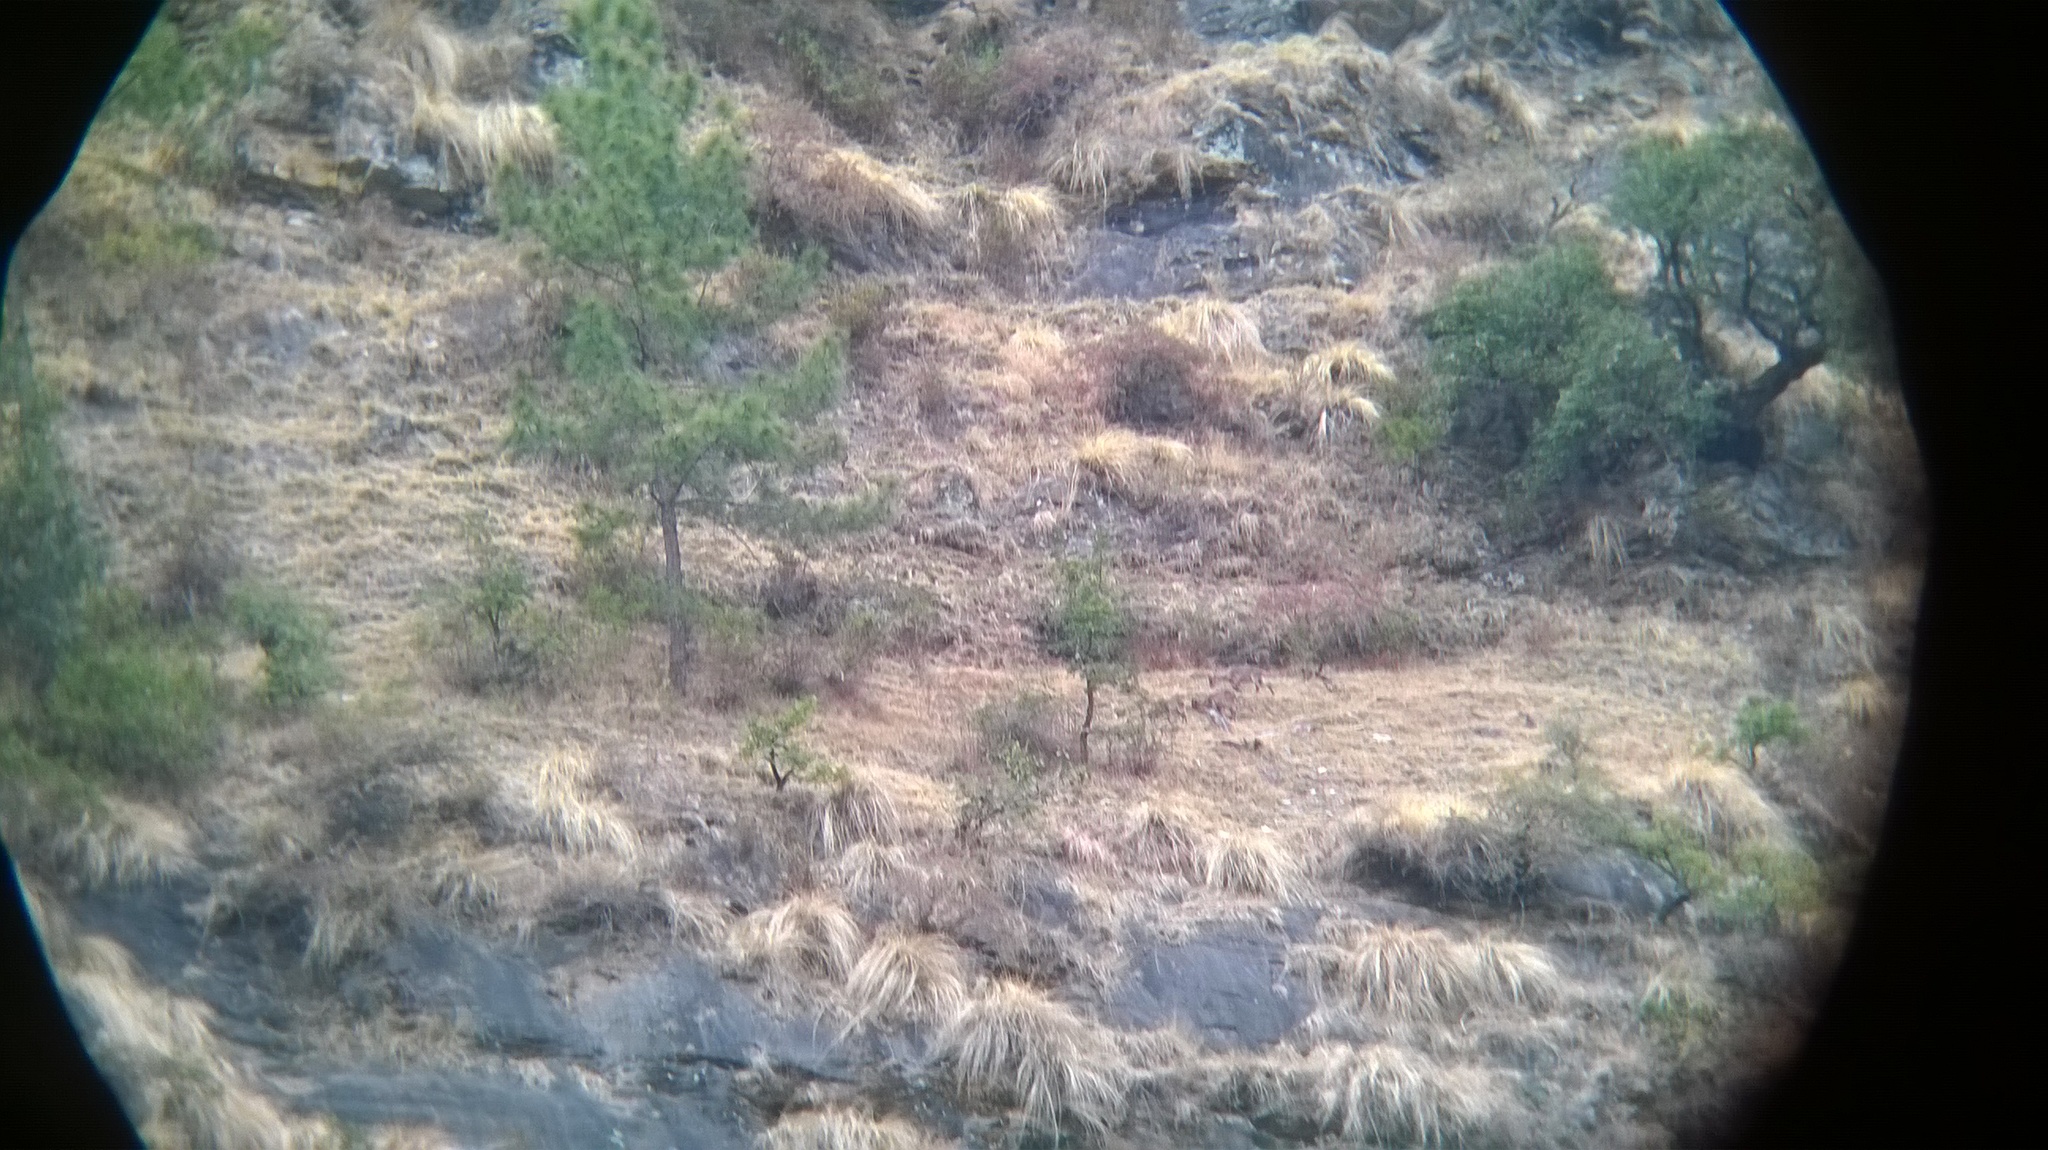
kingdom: Animalia
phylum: Chordata
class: Mammalia
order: Artiodactyla
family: Bovidae
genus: Naemorhedus
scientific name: Naemorhedus goral
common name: Goral
